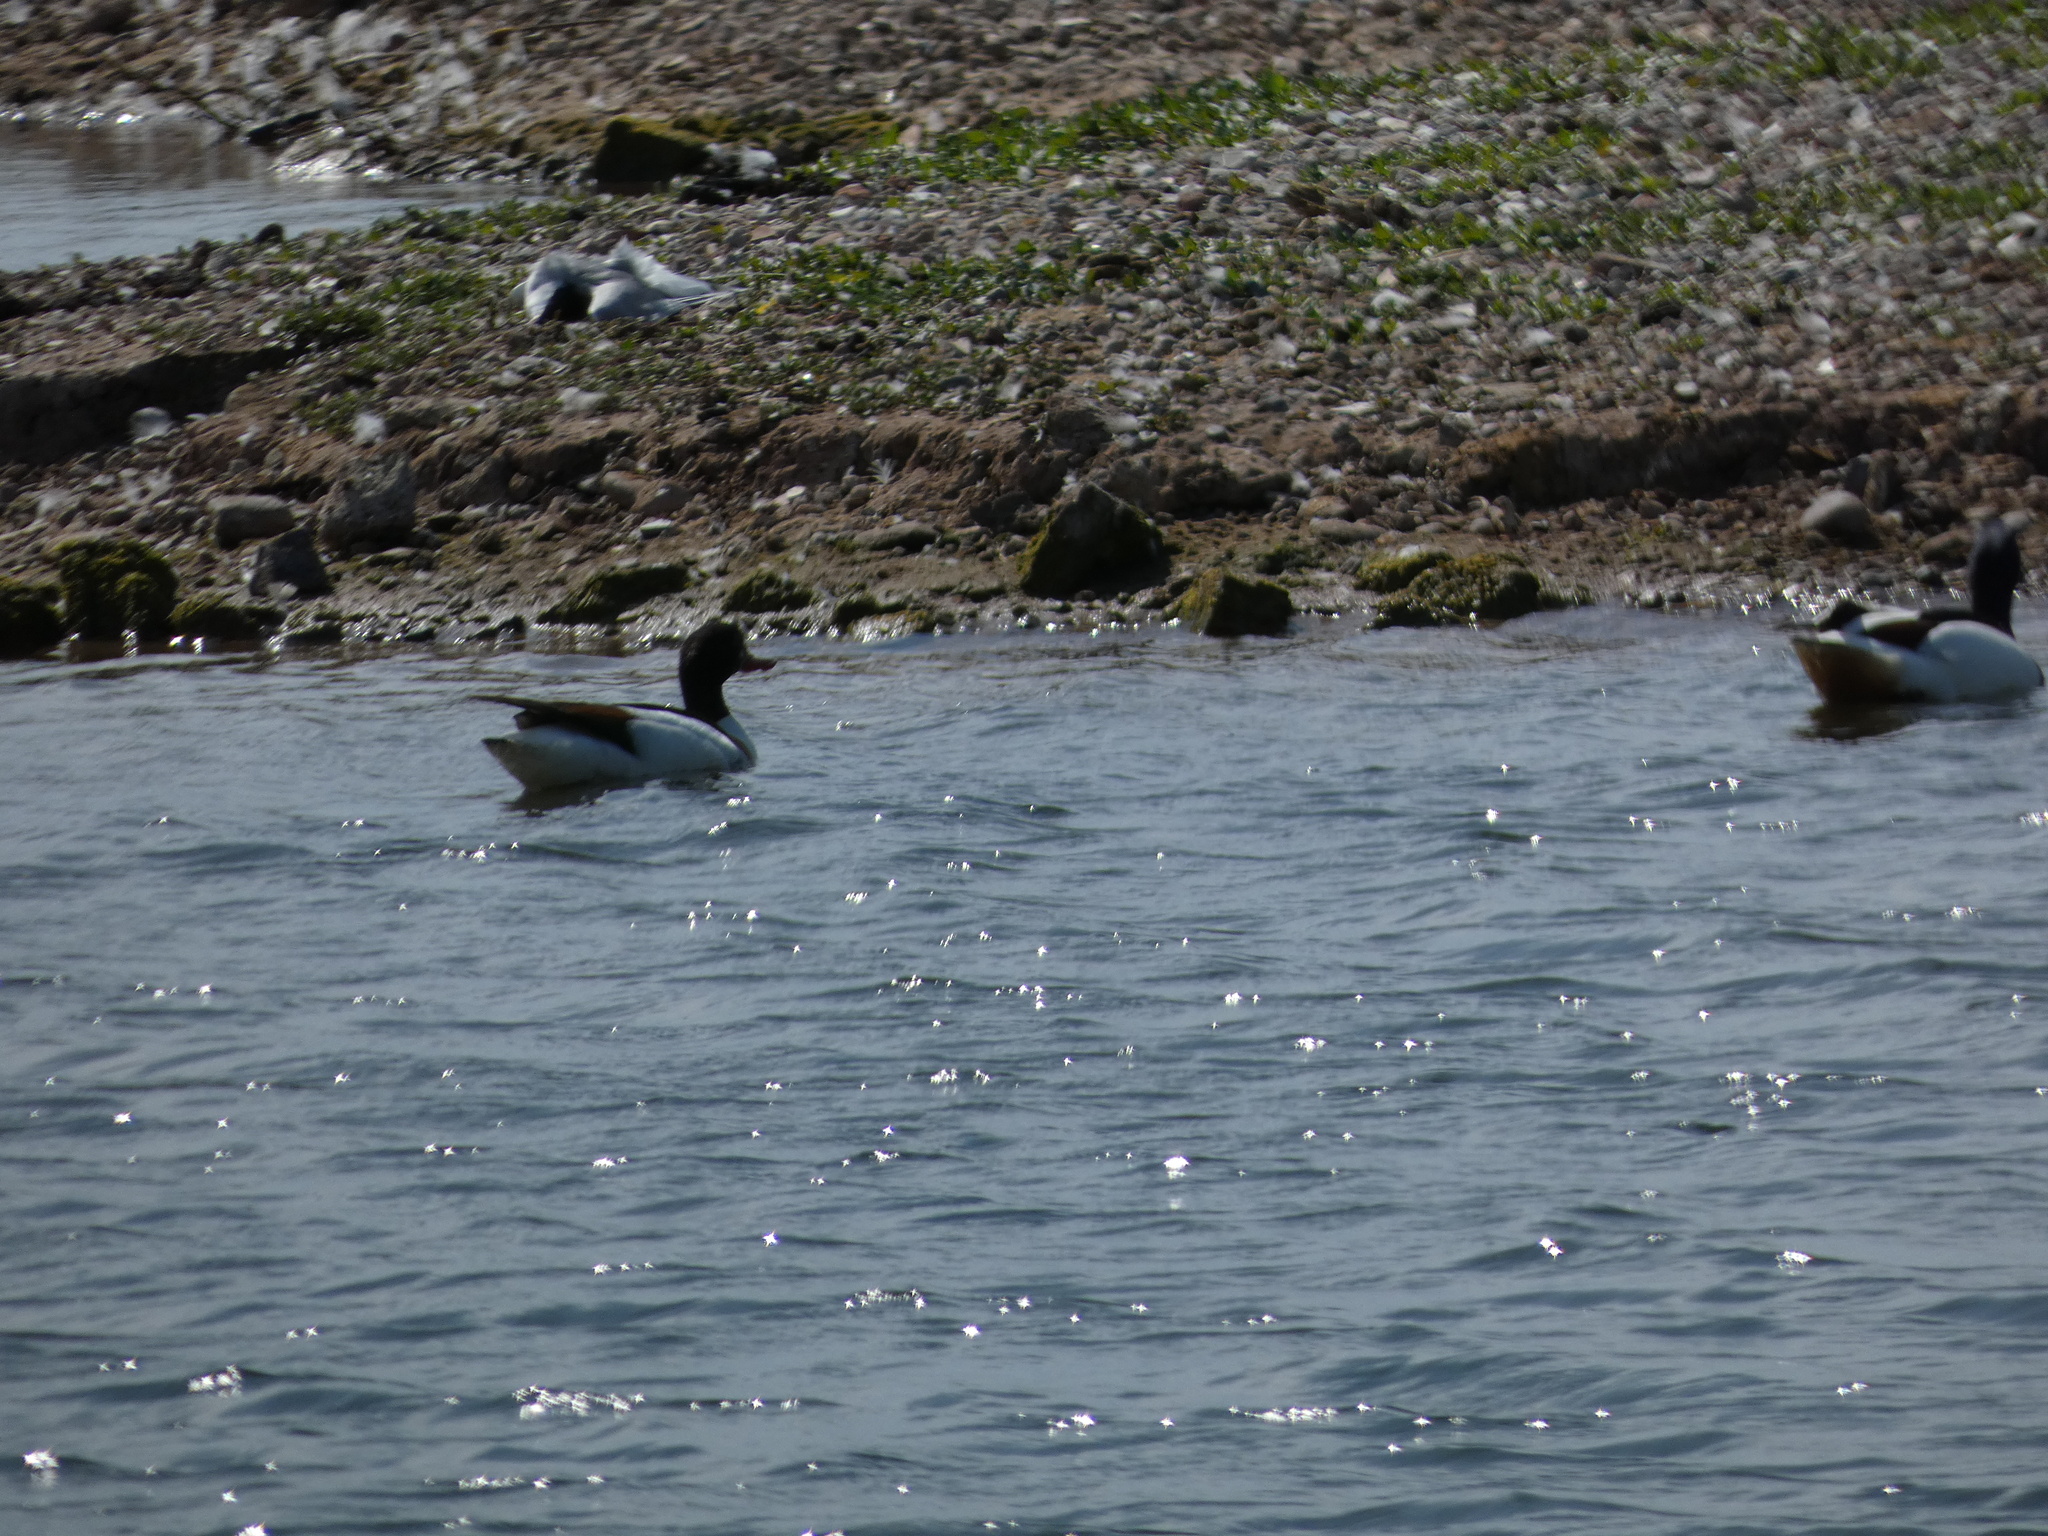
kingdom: Animalia
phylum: Chordata
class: Aves
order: Anseriformes
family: Anatidae
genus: Tadorna
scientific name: Tadorna tadorna
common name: Common shelduck
